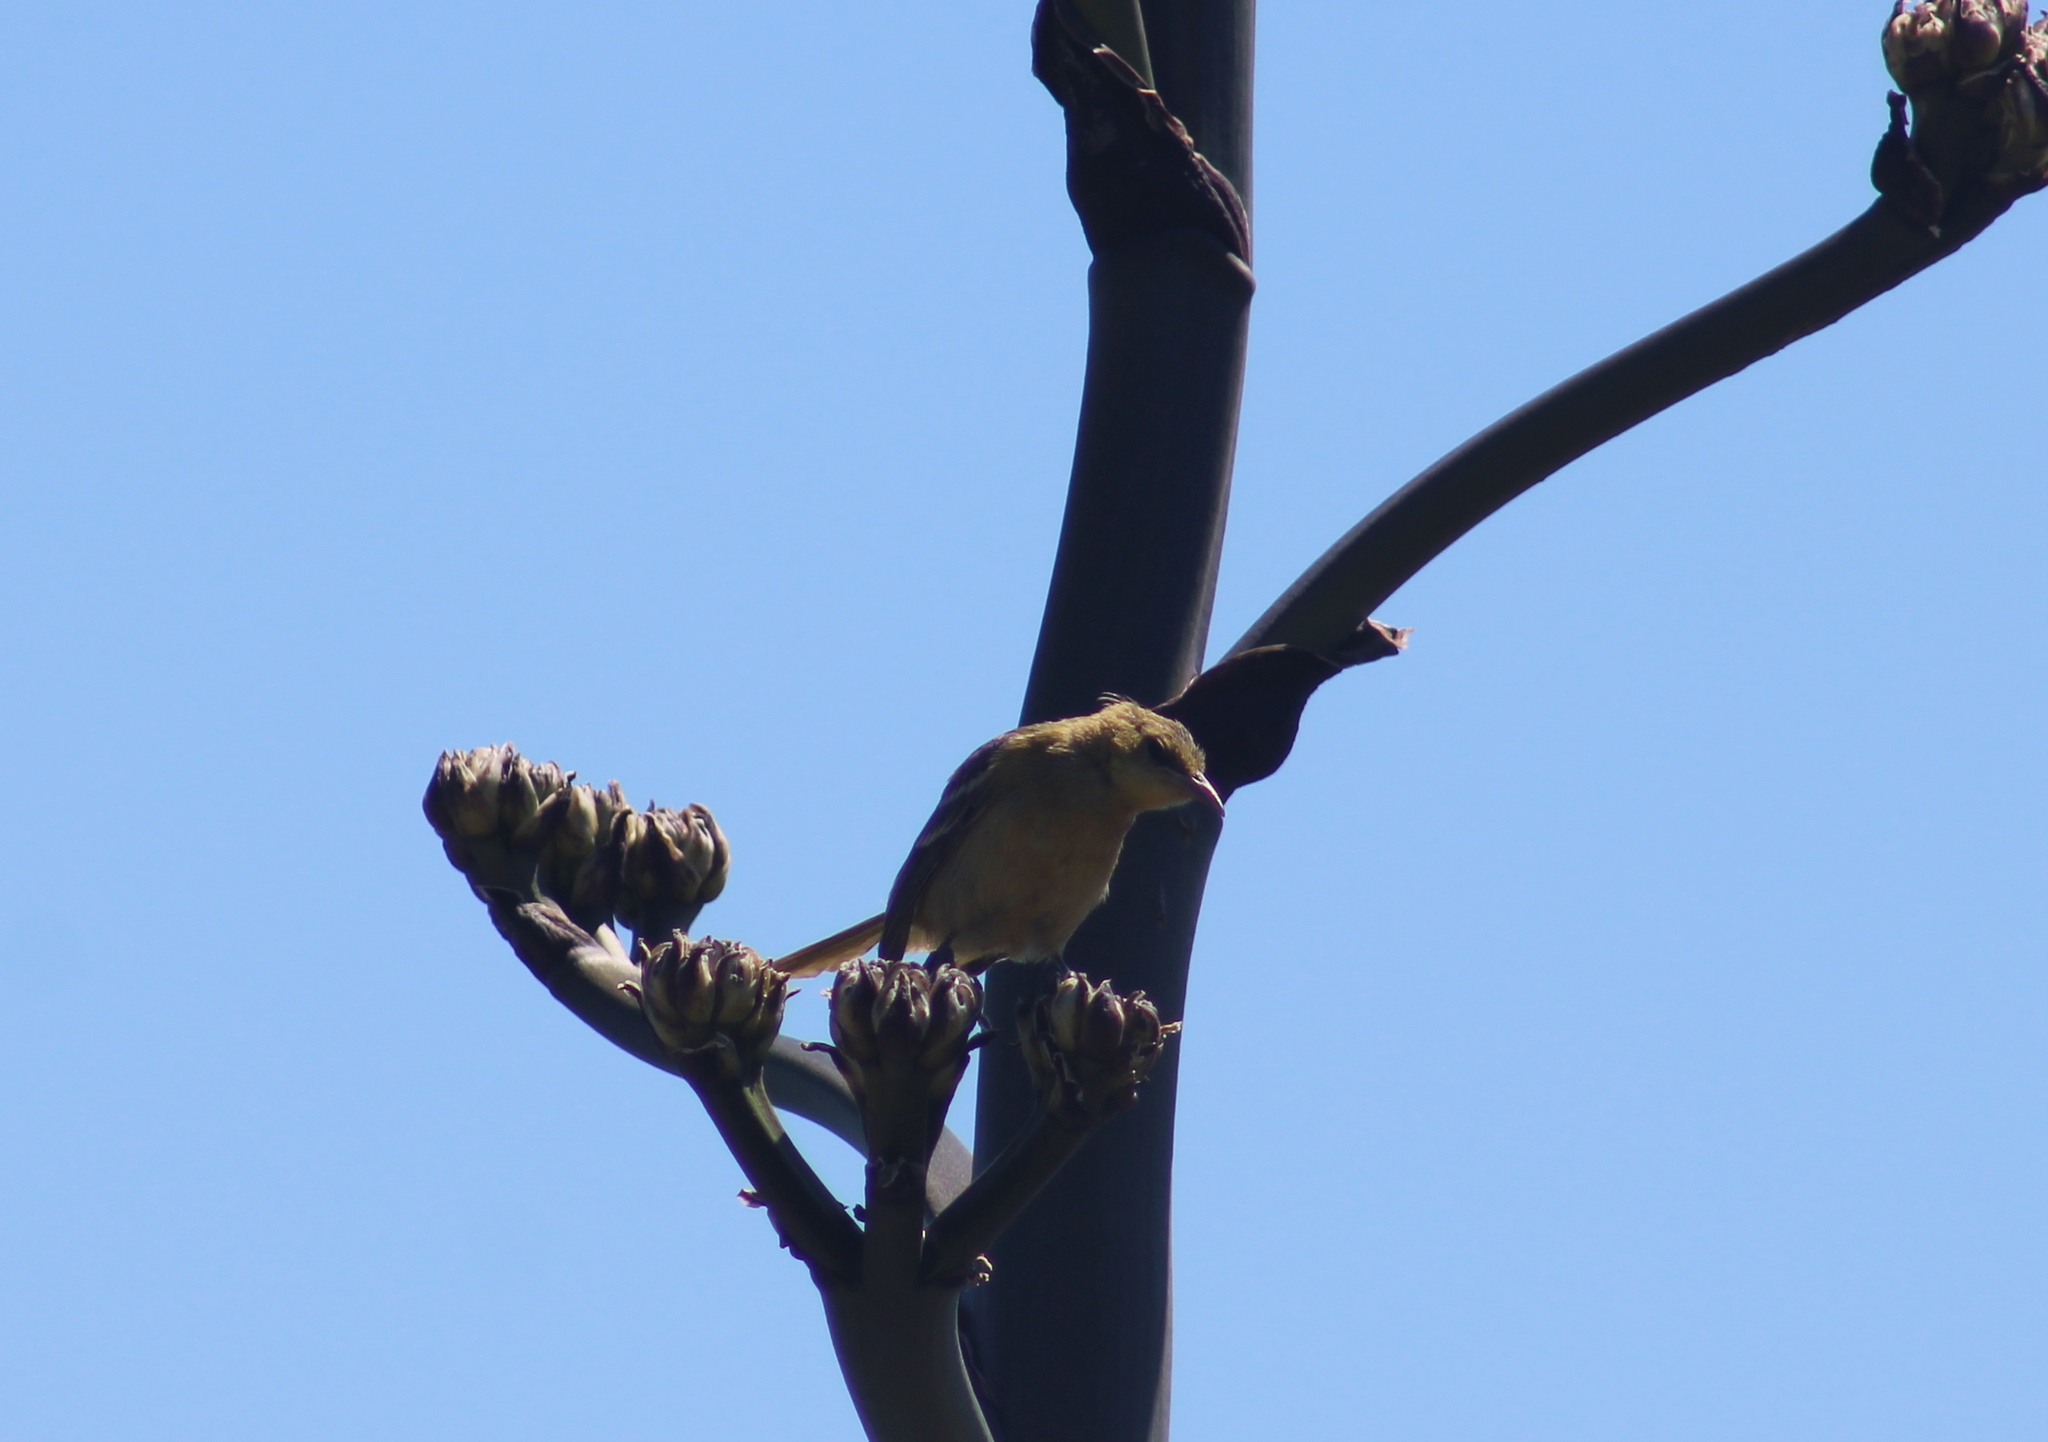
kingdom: Animalia
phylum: Chordata
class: Aves
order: Passeriformes
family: Mimidae
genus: Mimus
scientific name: Mimus polyglottos
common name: Northern mockingbird
